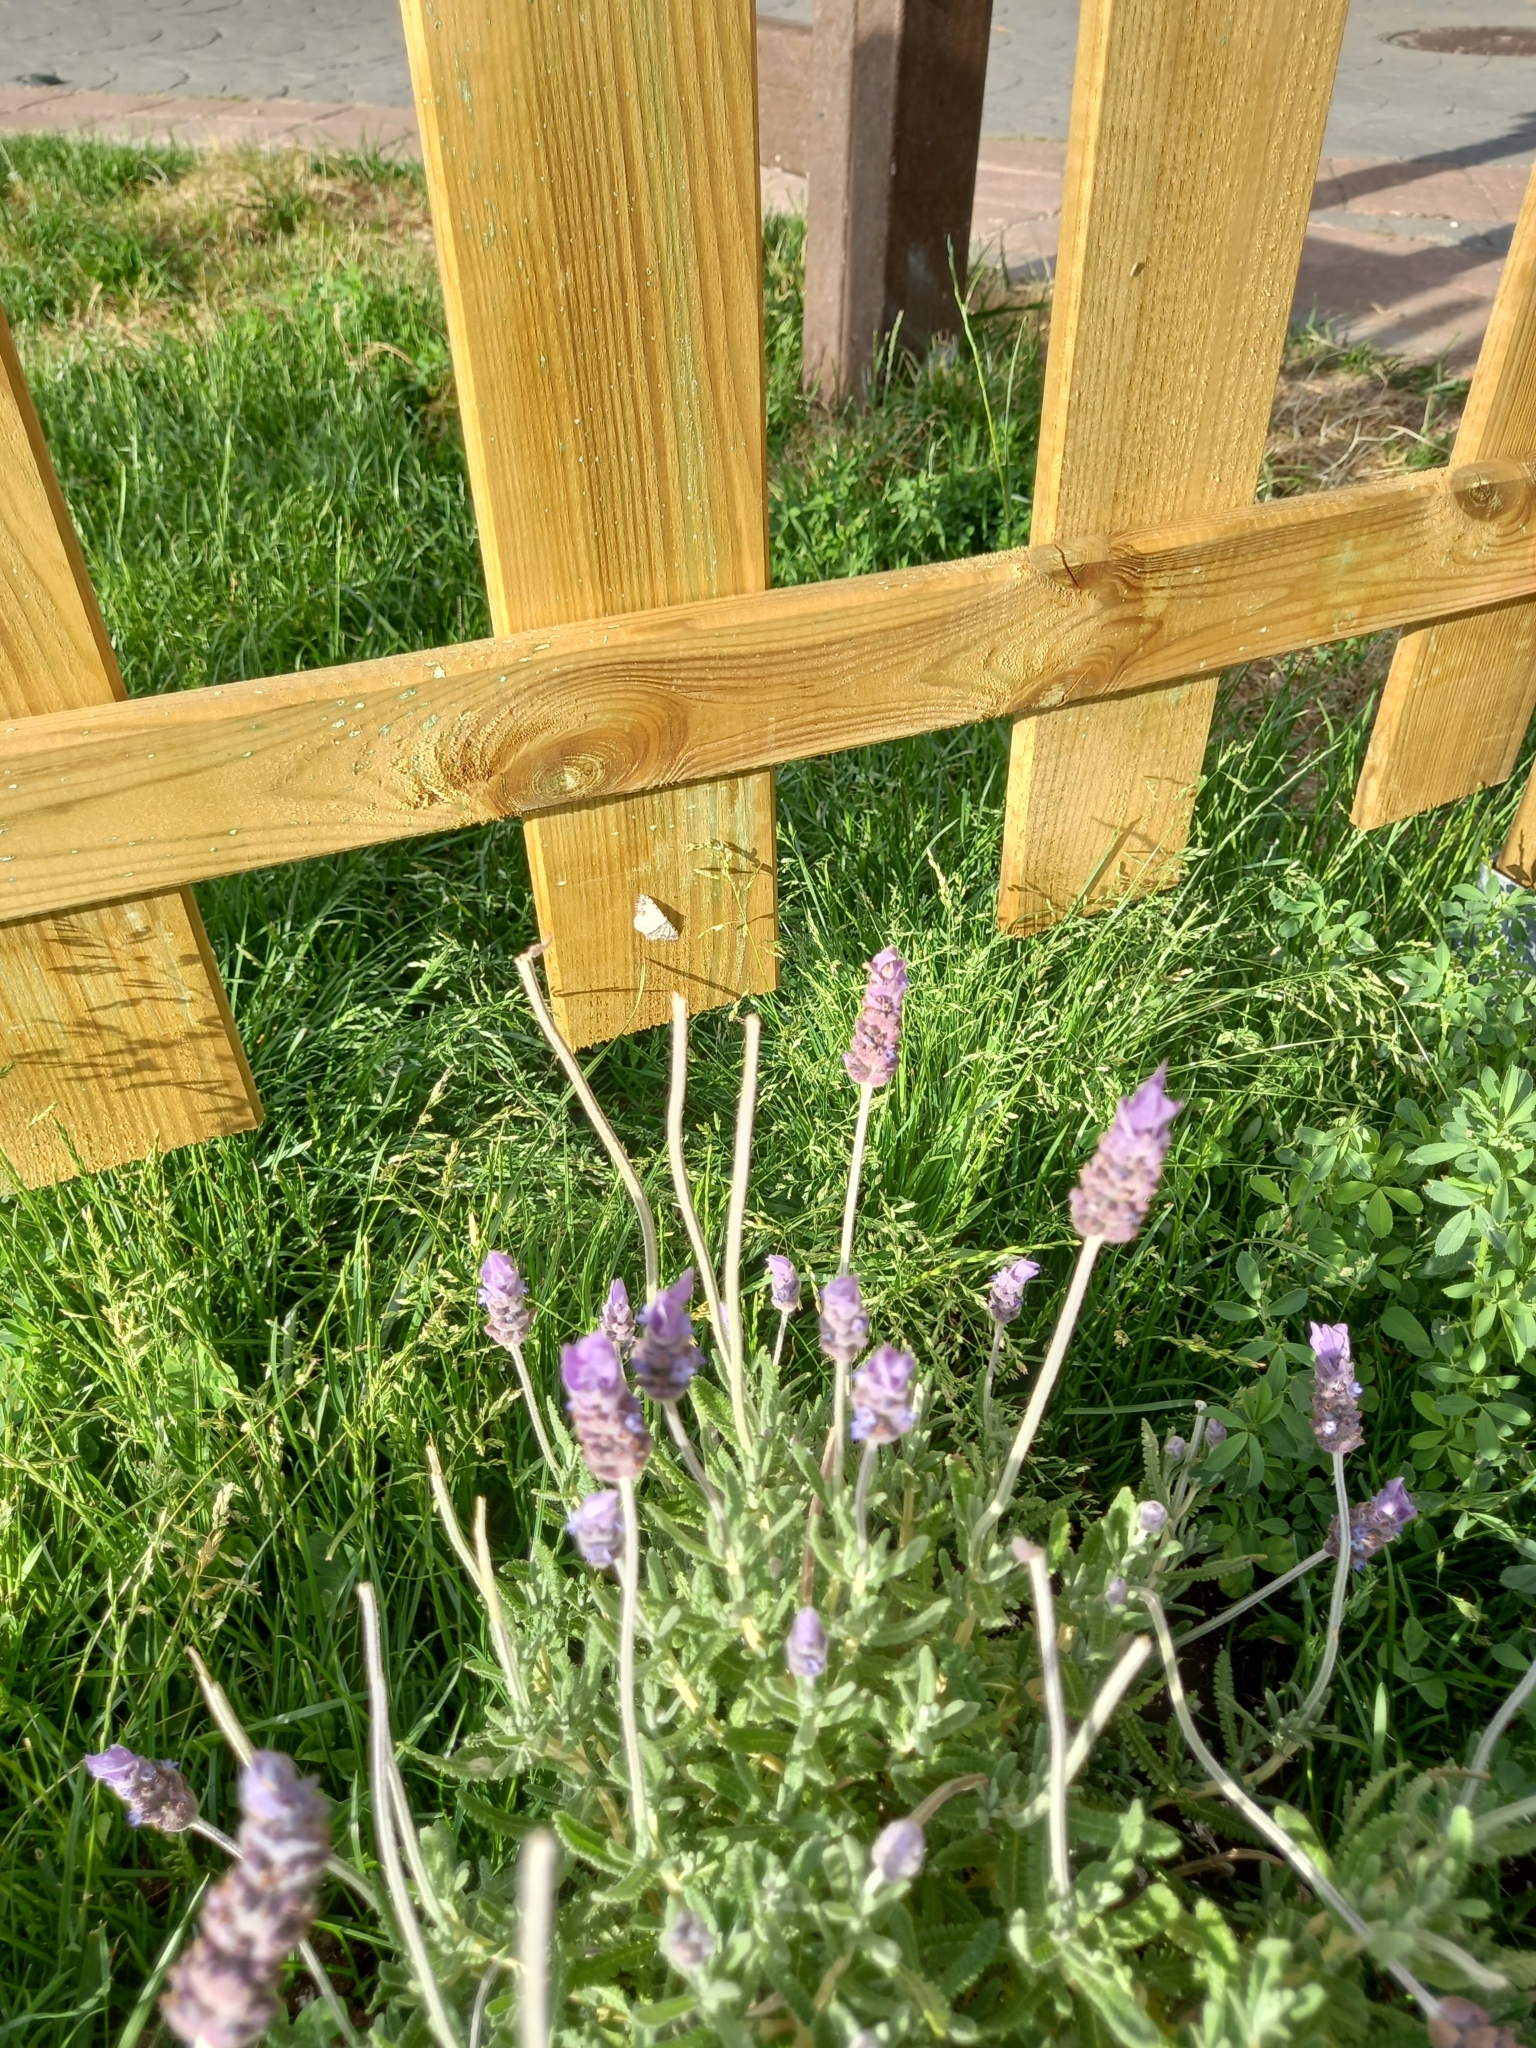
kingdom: Animalia
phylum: Arthropoda
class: Insecta
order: Lepidoptera
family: Geometridae
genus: Scopula
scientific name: Scopula decorata
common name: Middle lace border
